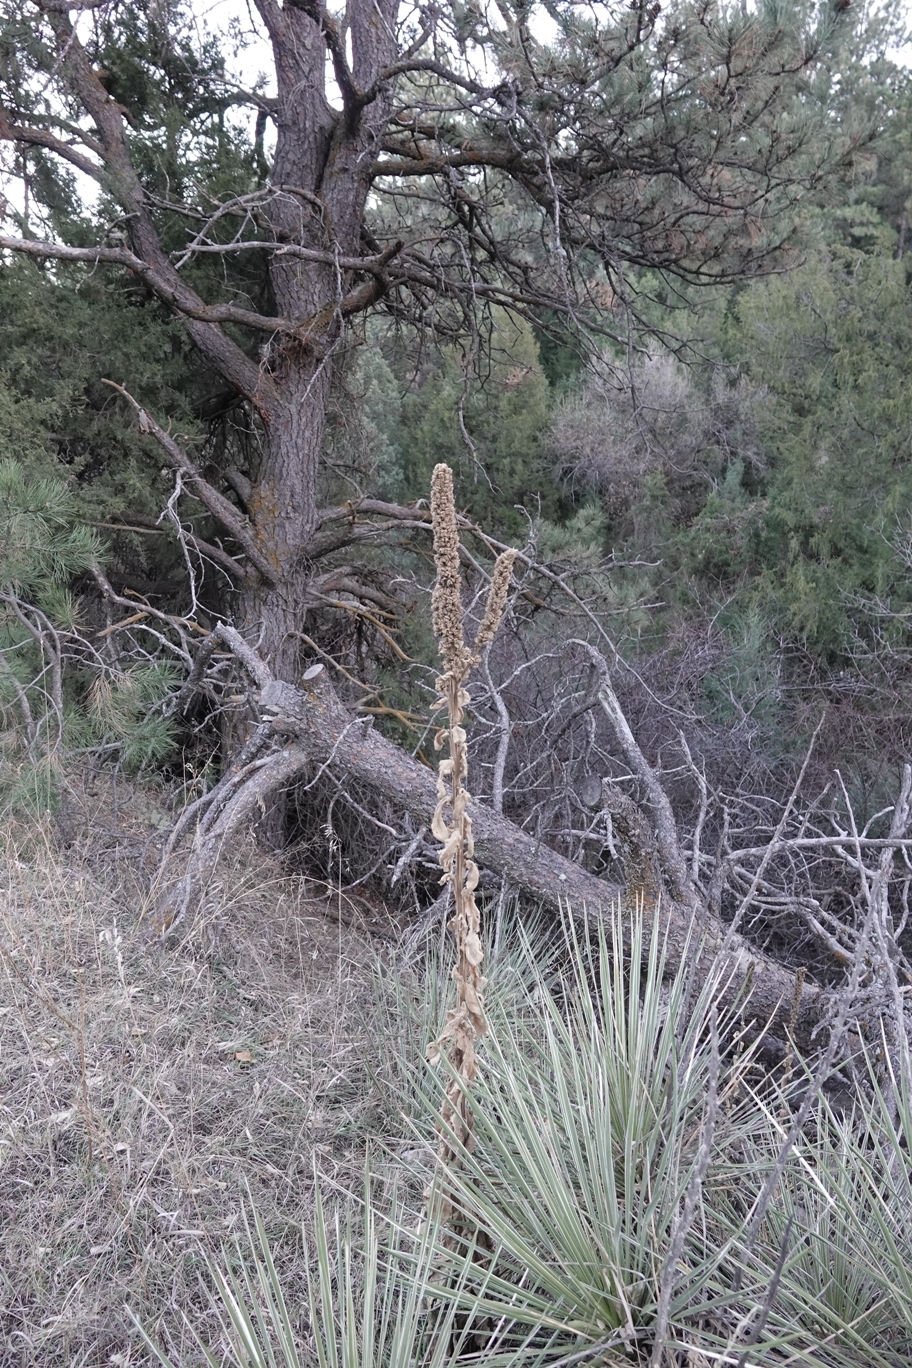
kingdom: Plantae
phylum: Tracheophyta
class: Magnoliopsida
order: Lamiales
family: Scrophulariaceae
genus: Verbascum
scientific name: Verbascum thapsus
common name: Common mullein
